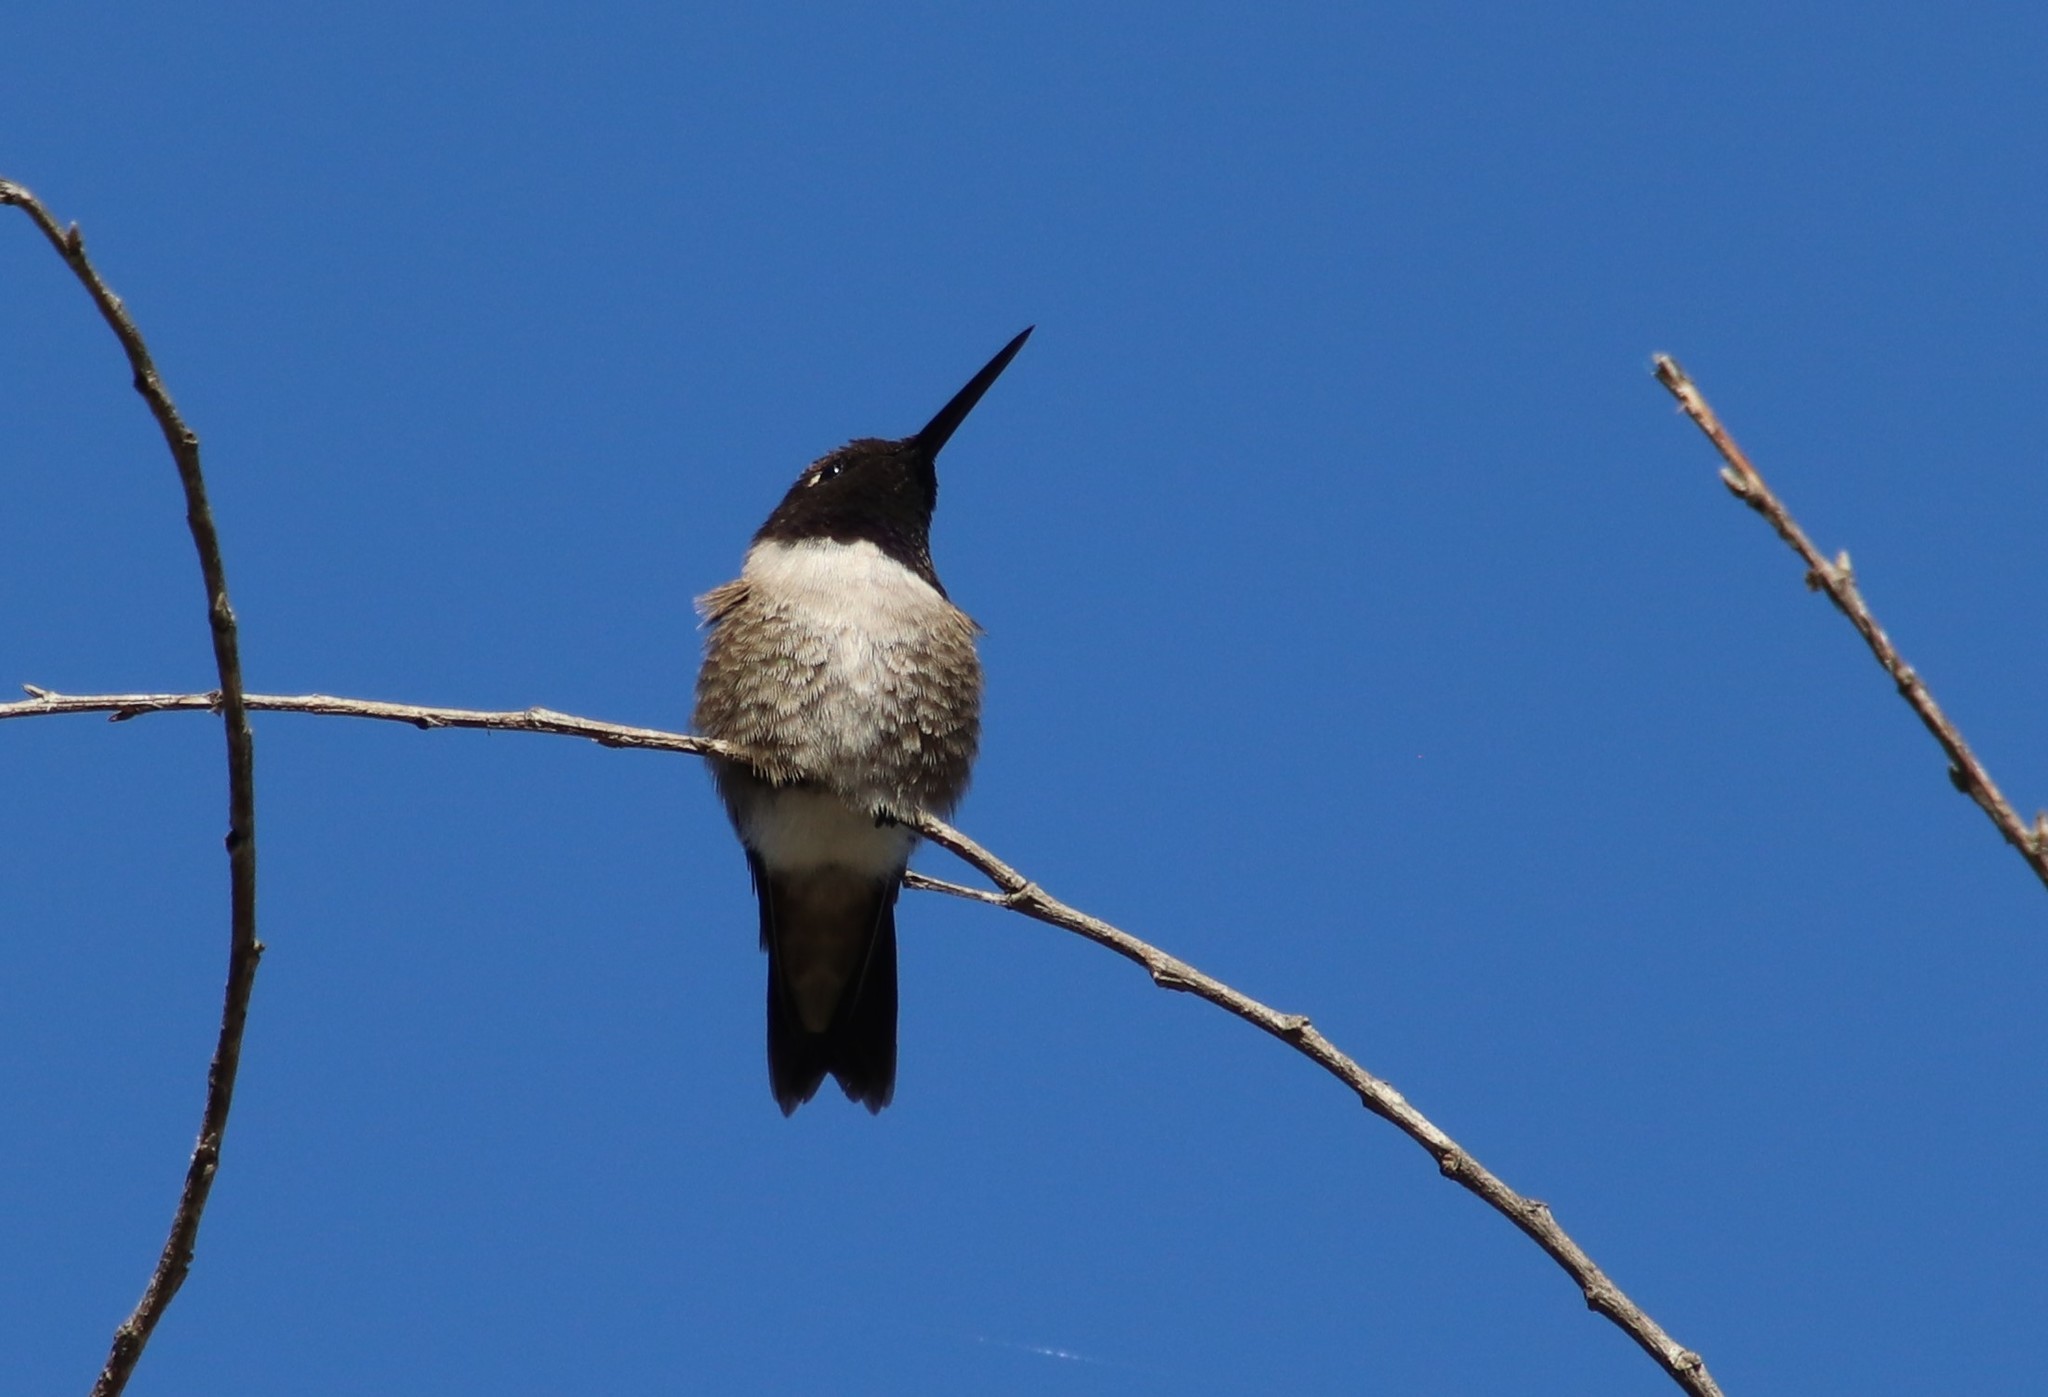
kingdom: Animalia
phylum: Chordata
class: Aves
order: Apodiformes
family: Trochilidae
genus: Archilochus
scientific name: Archilochus alexandri
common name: Black-chinned hummingbird
